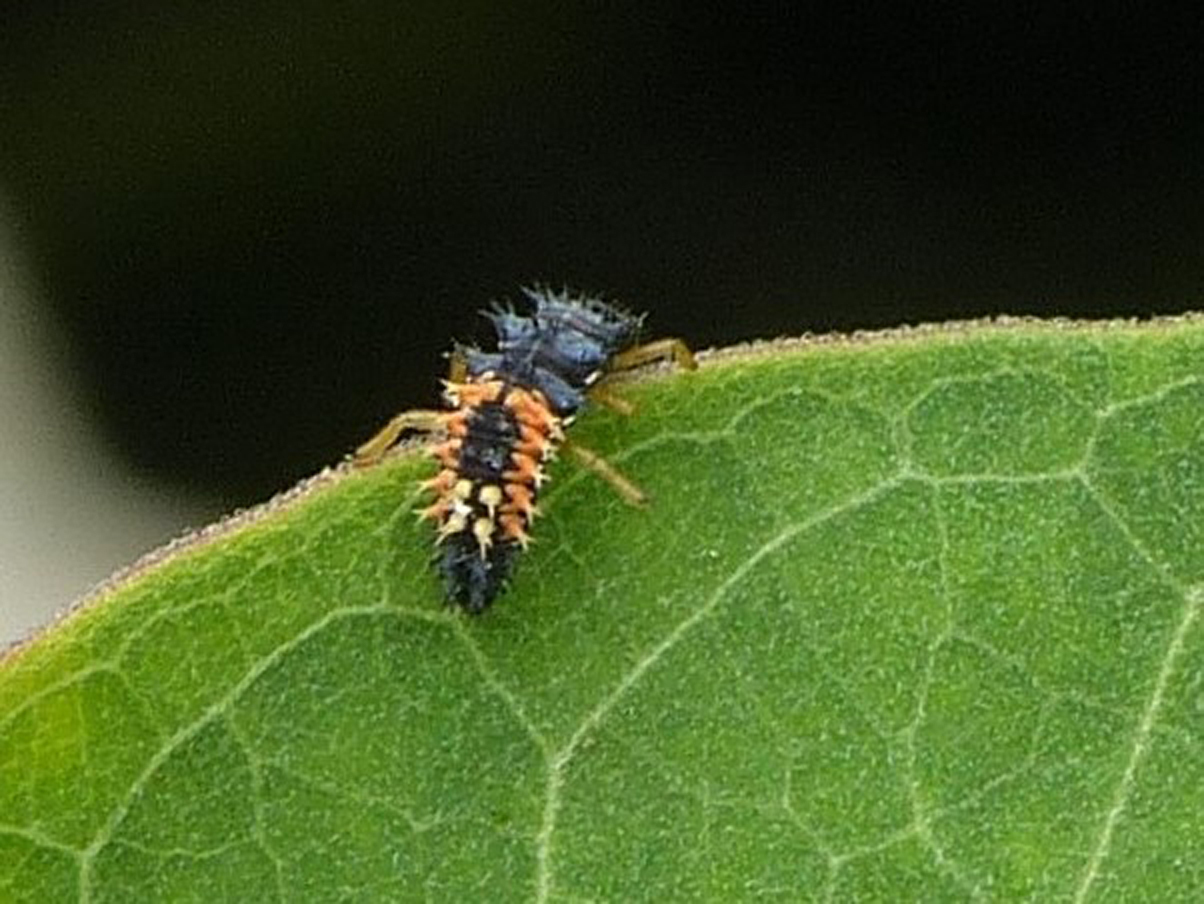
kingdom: Animalia
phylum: Arthropoda
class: Insecta
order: Coleoptera
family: Coccinellidae
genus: Harmonia
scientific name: Harmonia axyridis
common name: Harlequin ladybird
